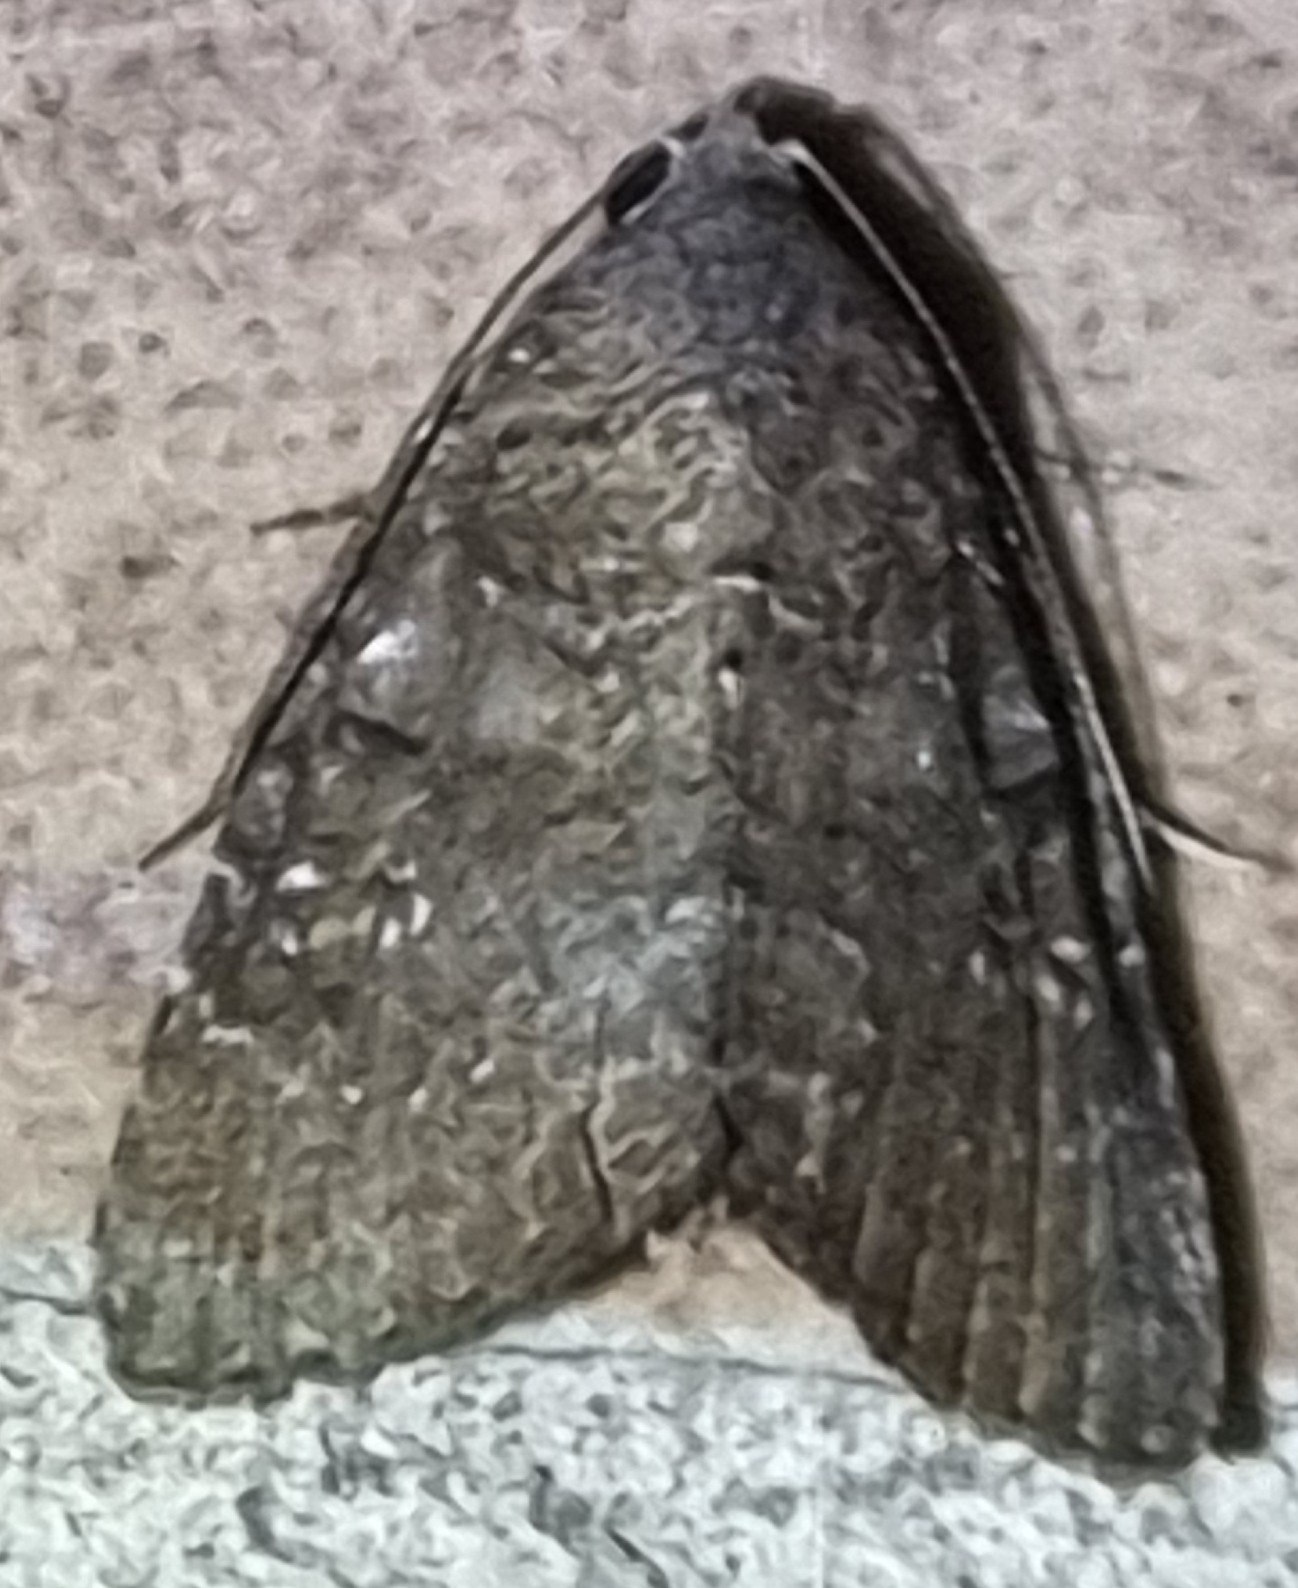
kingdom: Animalia
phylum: Arthropoda
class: Insecta
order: Lepidoptera
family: Noctuidae
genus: Amyna
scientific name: Amyna natalis
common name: Iiima moth
